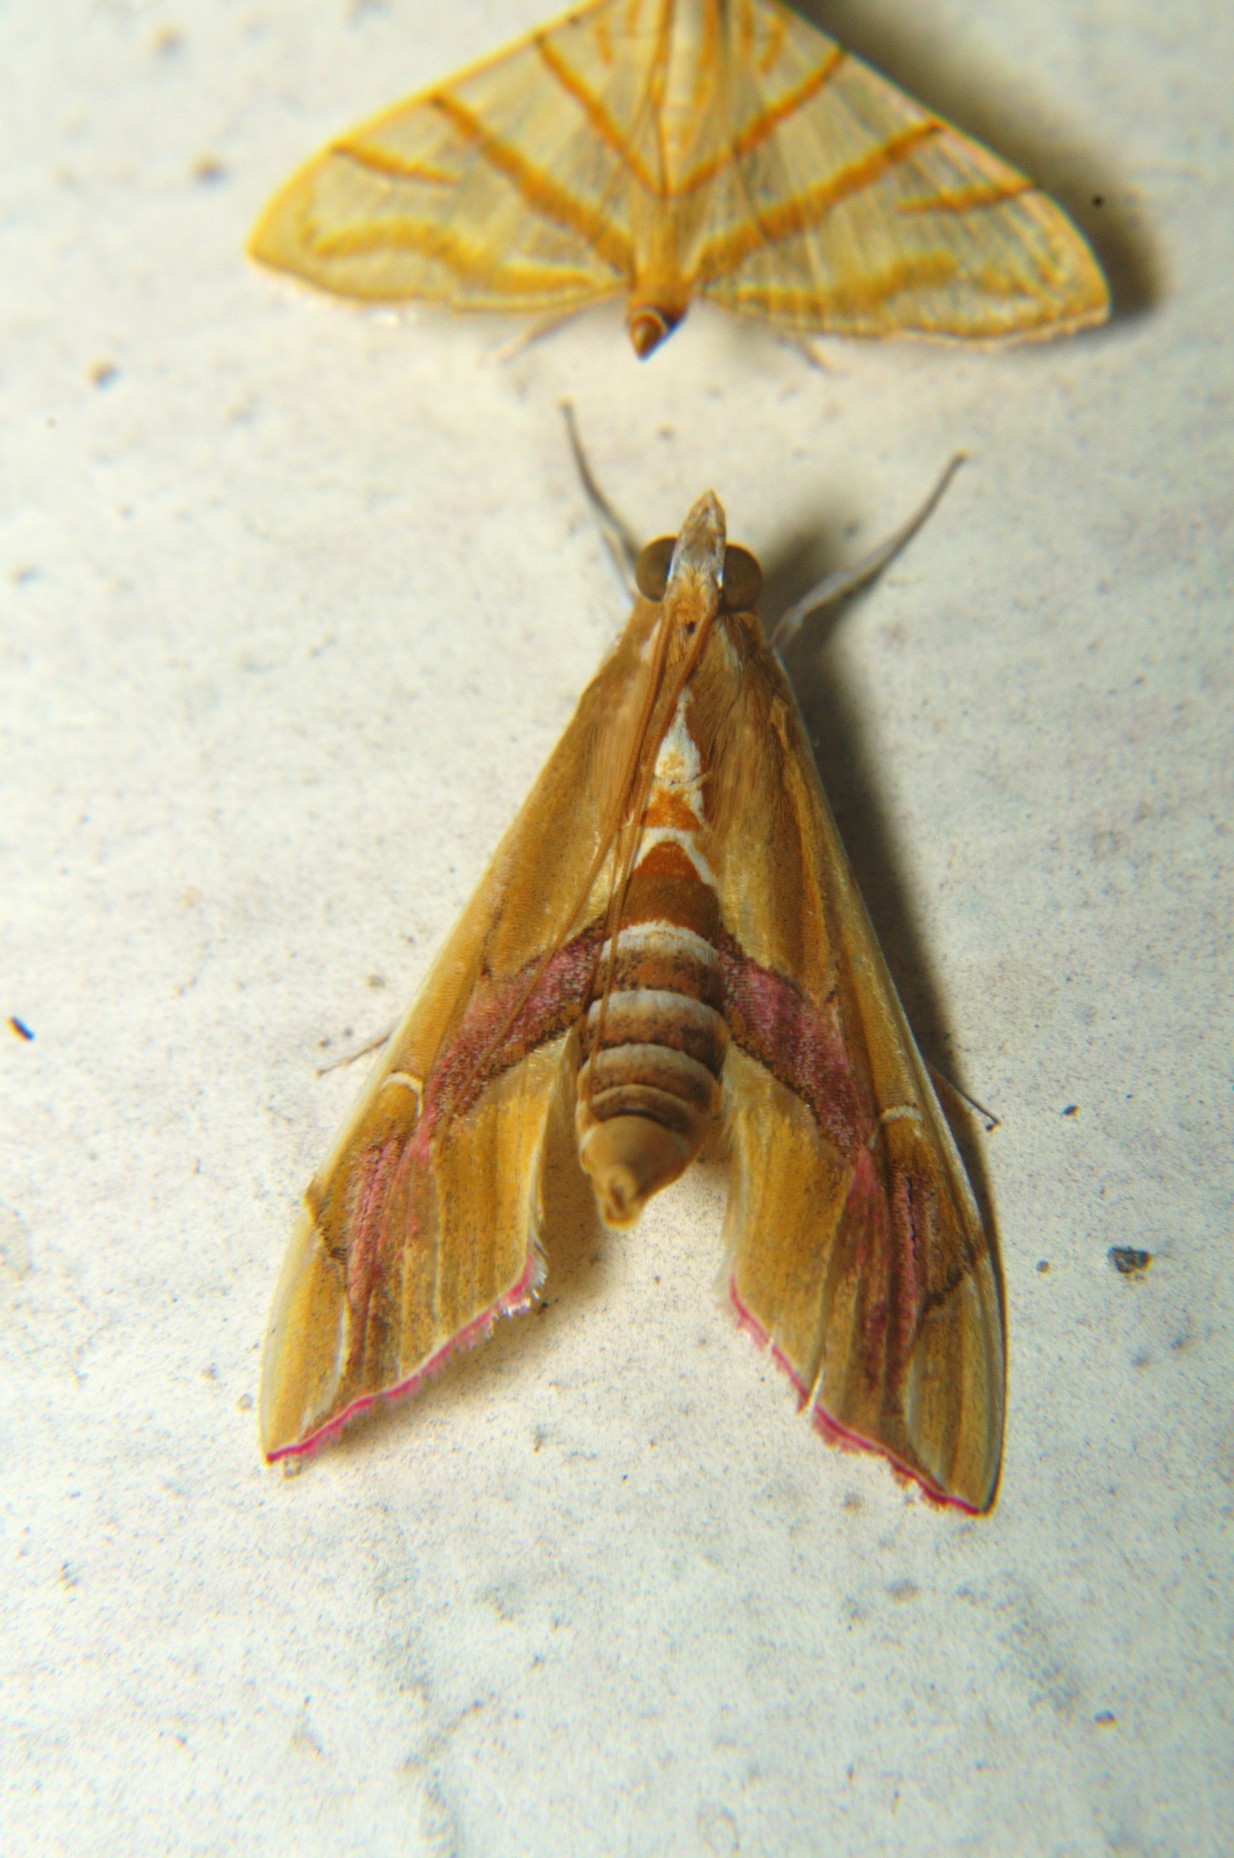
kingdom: Animalia
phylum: Arthropoda
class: Insecta
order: Lepidoptera
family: Crambidae
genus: Agathodes
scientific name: Agathodes ostentalis
